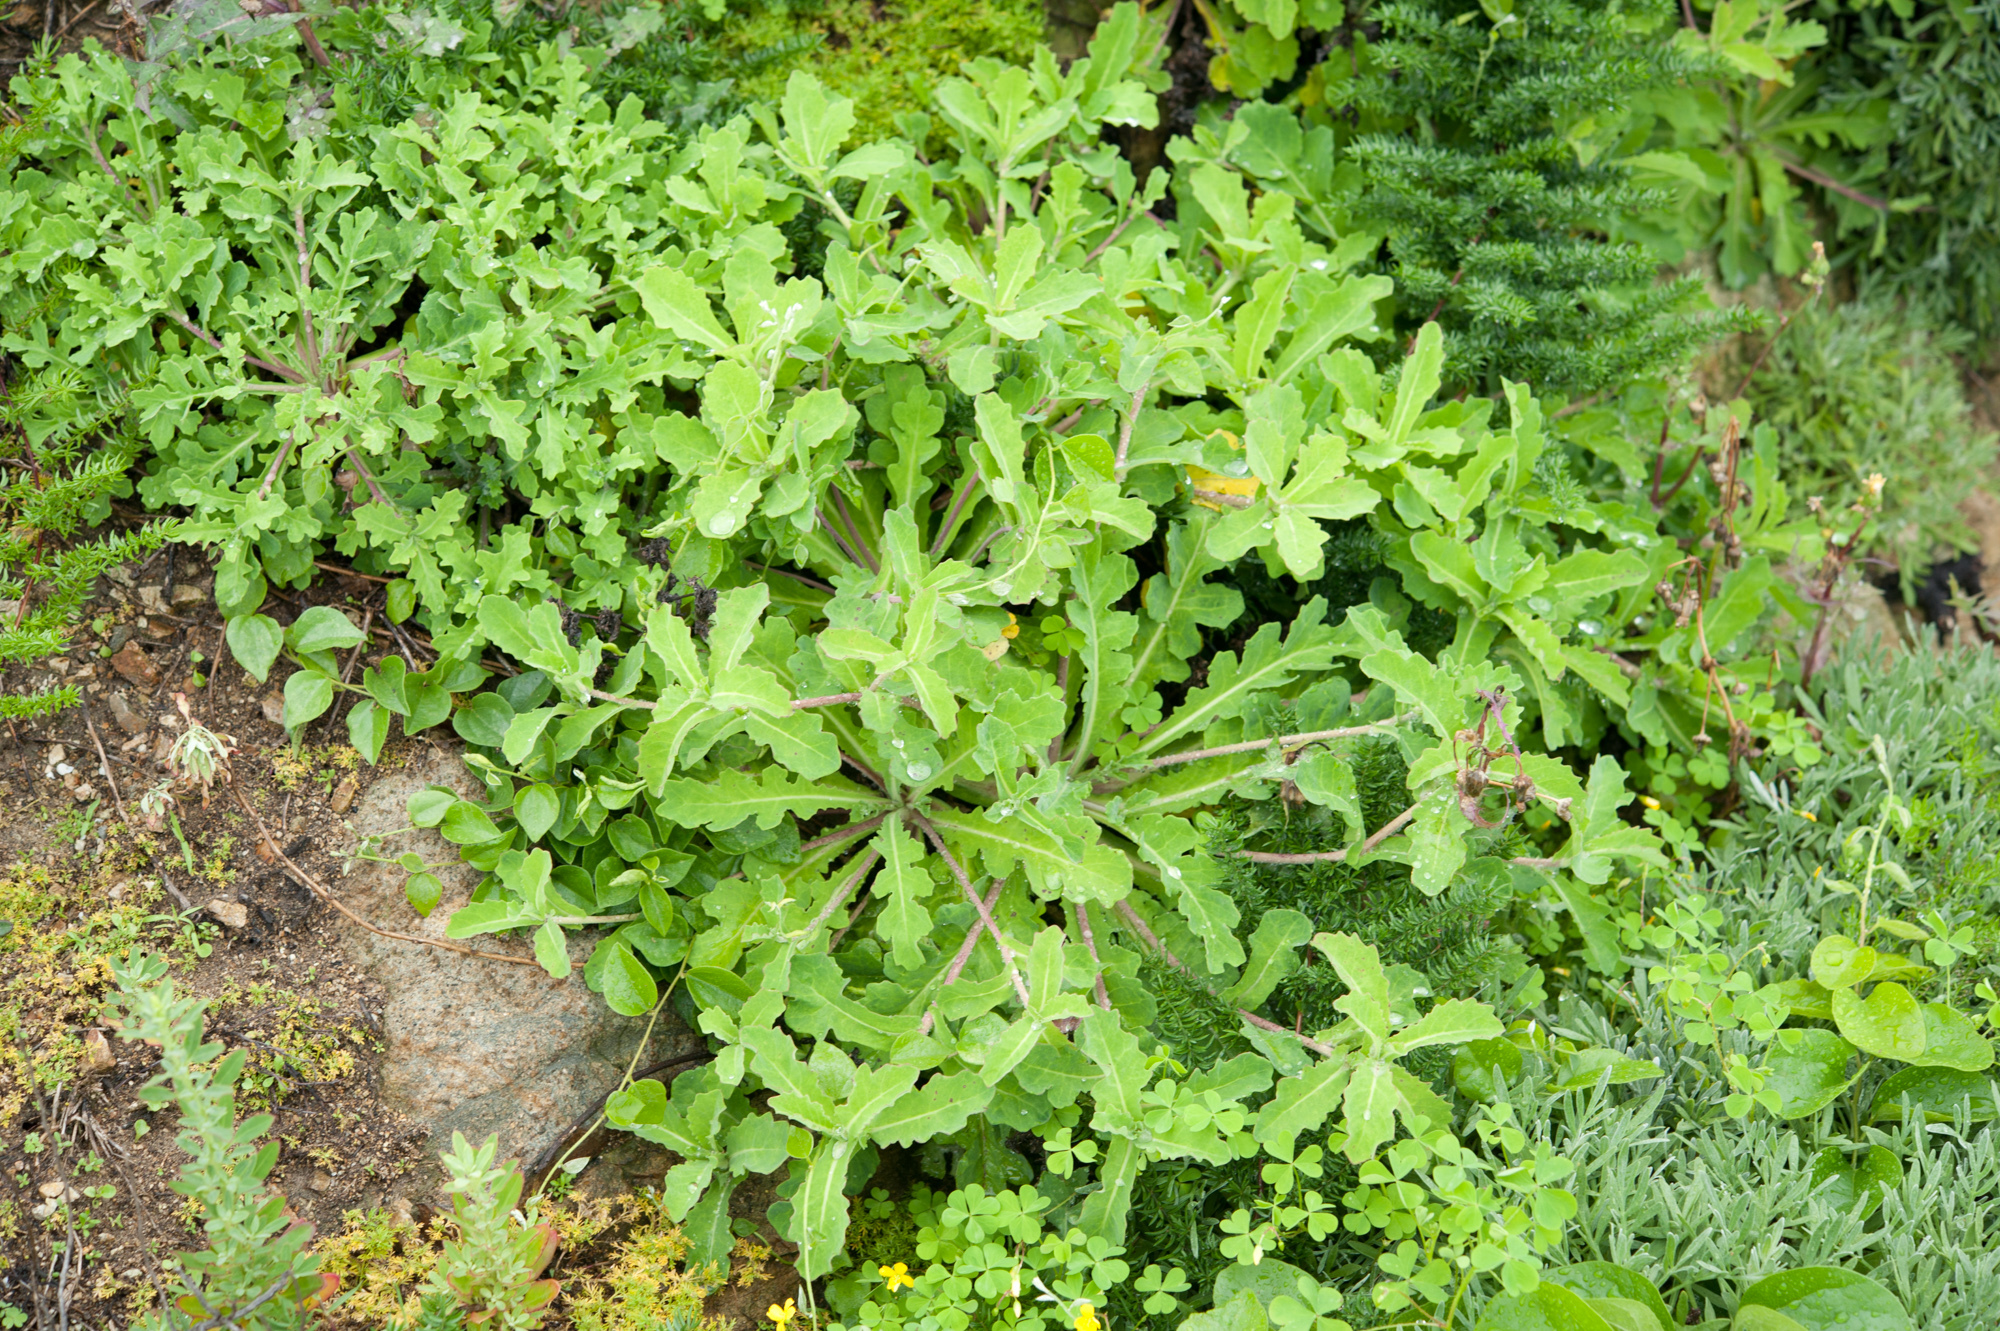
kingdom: Plantae
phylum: Tracheophyta
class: Magnoliopsida
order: Asterales
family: Asteraceae
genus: Crepidiastrum
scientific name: Crepidiastrum lanceolatum
